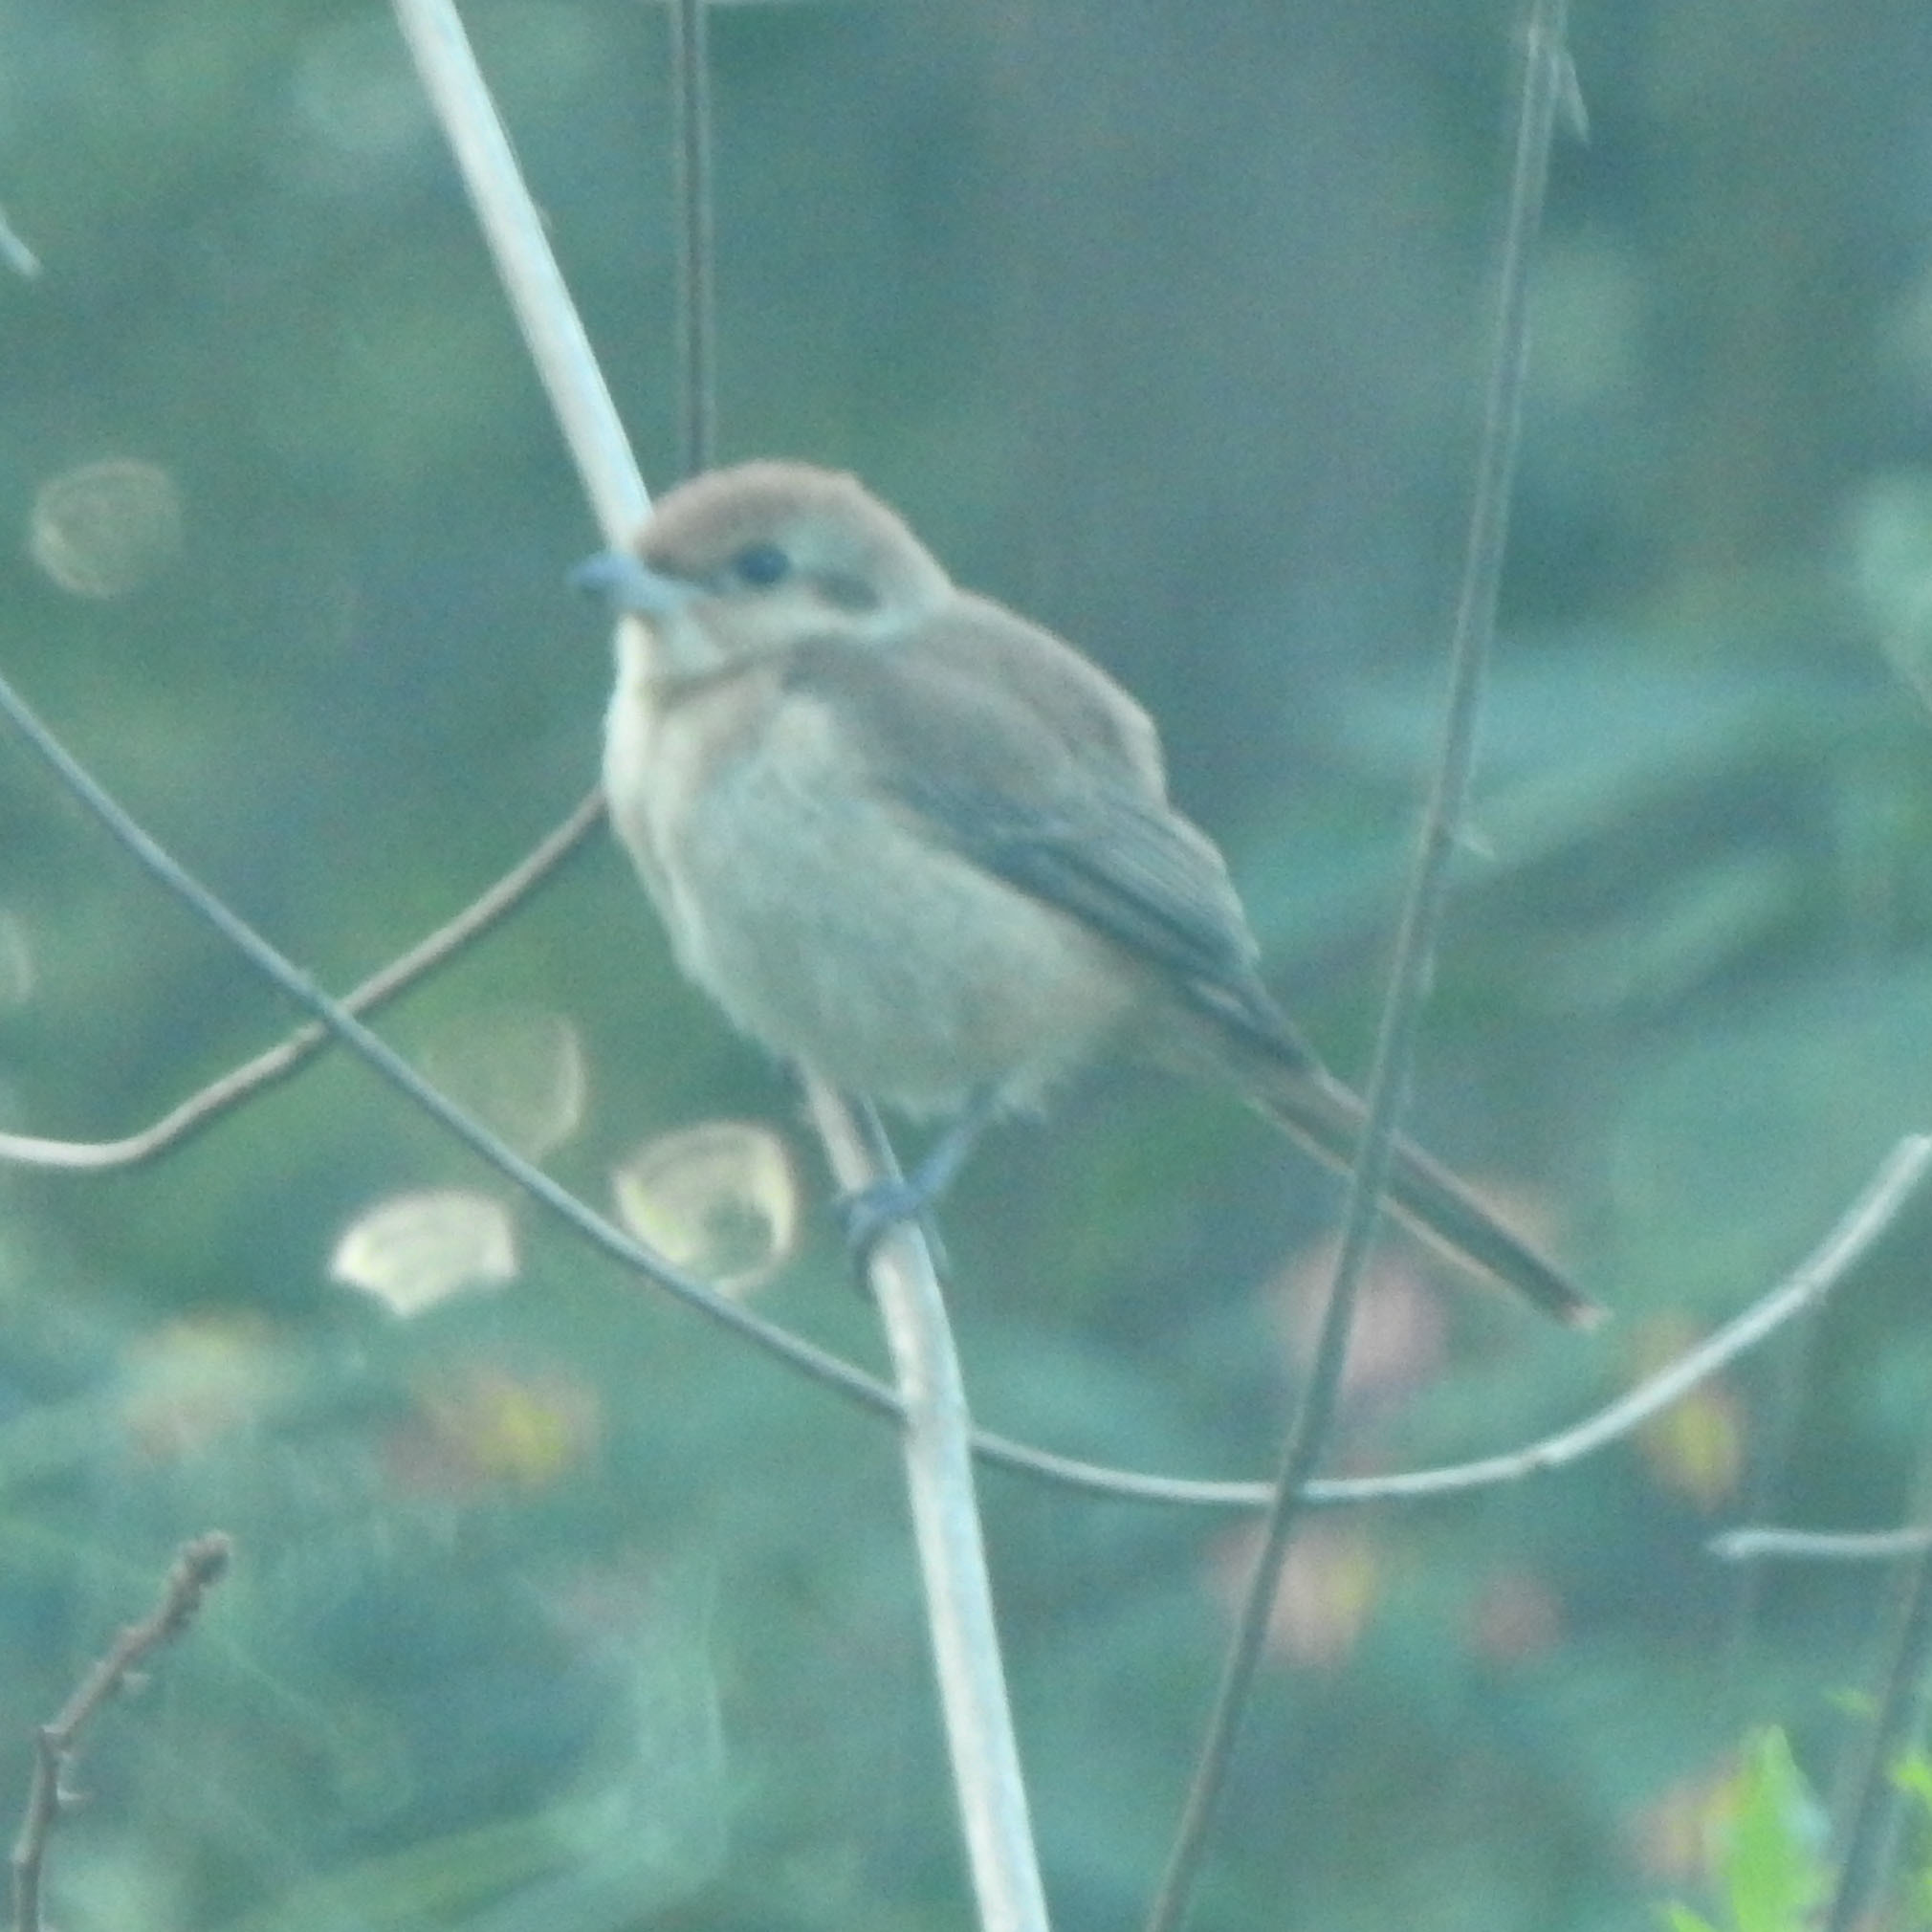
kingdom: Animalia
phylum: Chordata
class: Aves
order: Passeriformes
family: Laniidae
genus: Lanius
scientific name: Lanius cristatus
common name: Brown shrike
